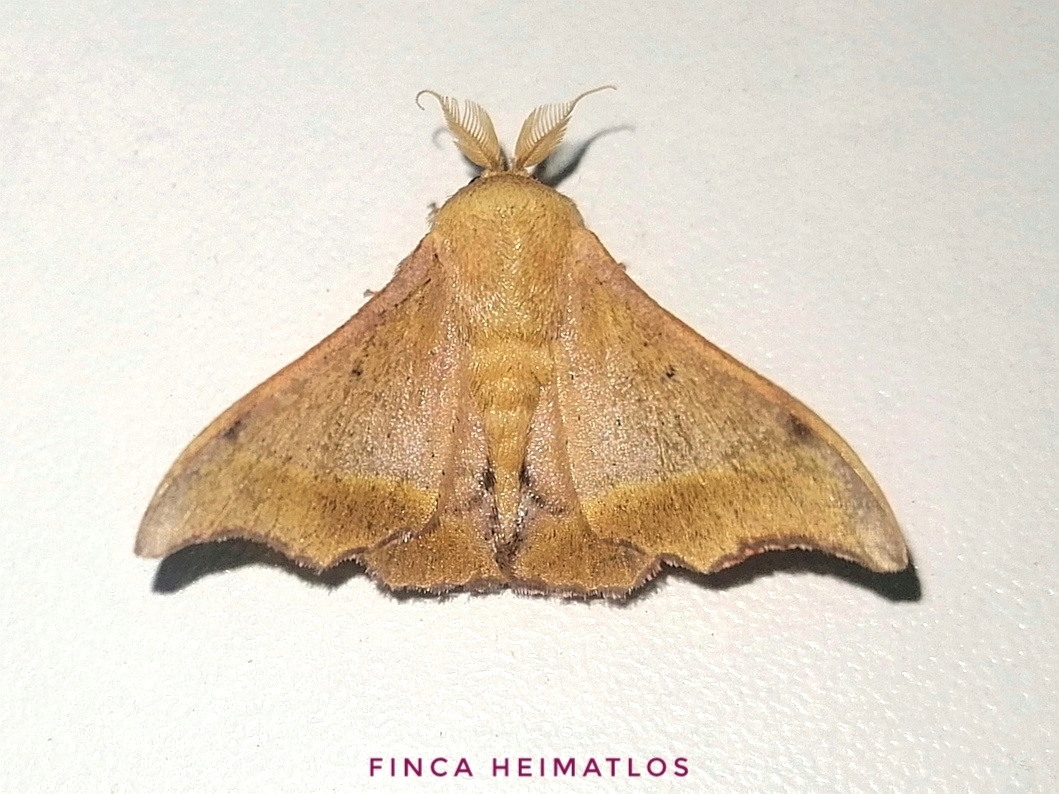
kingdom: Animalia
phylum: Arthropoda
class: Insecta
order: Lepidoptera
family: Mimallonidae
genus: Lacosoma
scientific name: Lacosoma oyapoca
